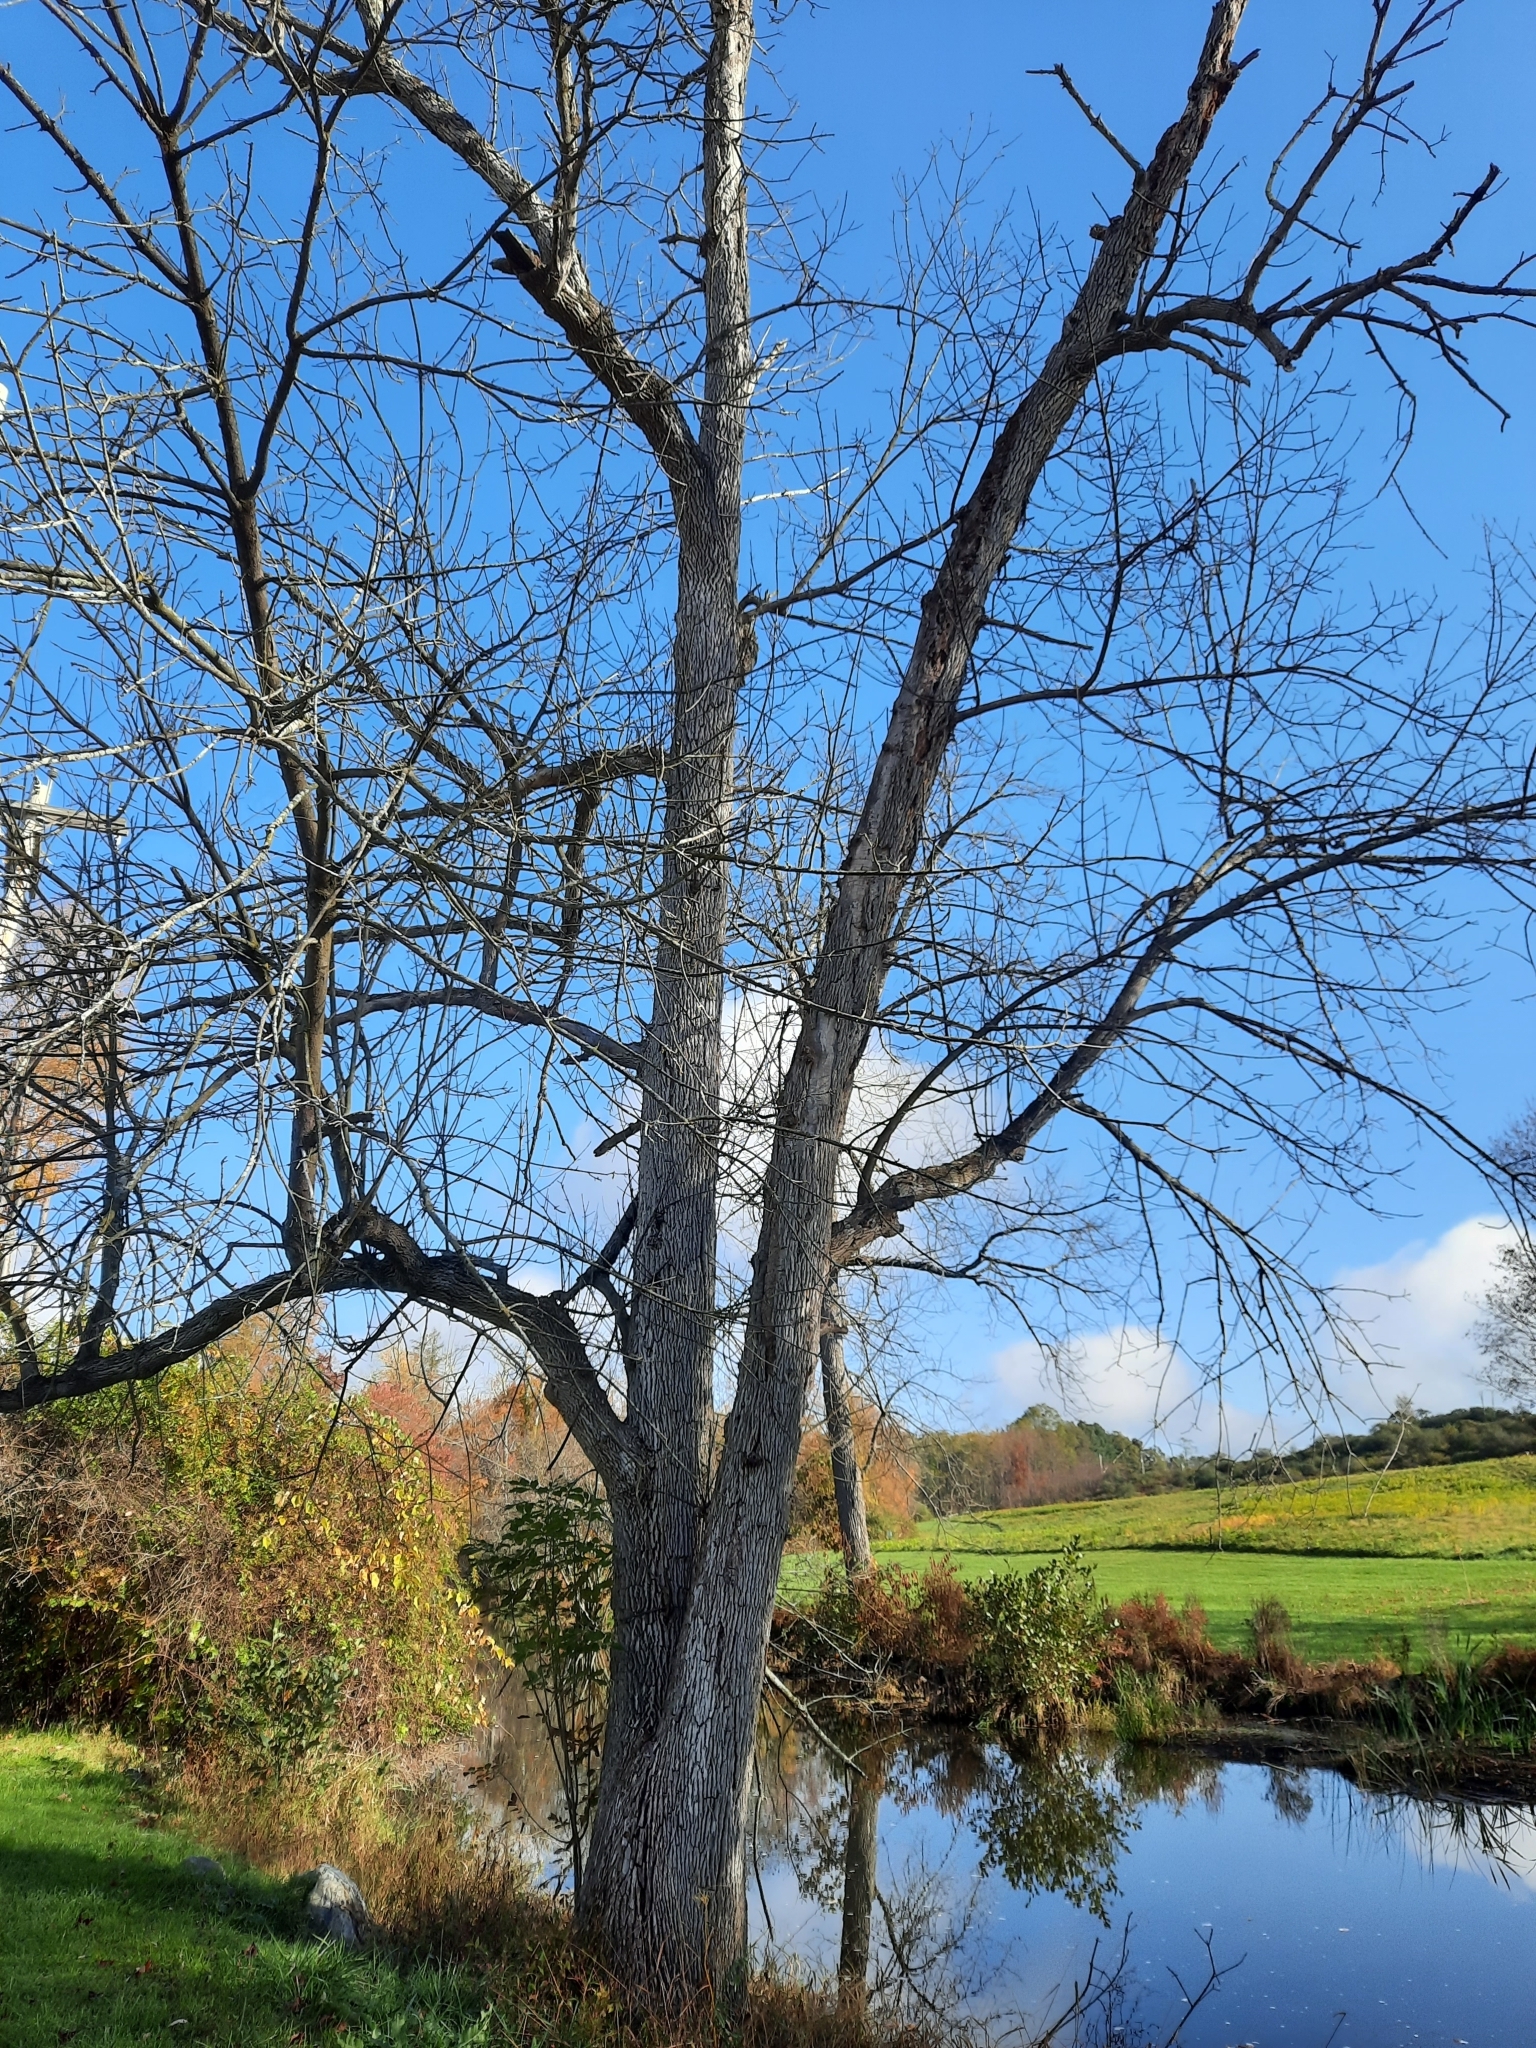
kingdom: Plantae
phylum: Tracheophyta
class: Magnoliopsida
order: Lamiales
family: Oleaceae
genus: Fraxinus
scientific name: Fraxinus pennsylvanica
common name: Green ash
